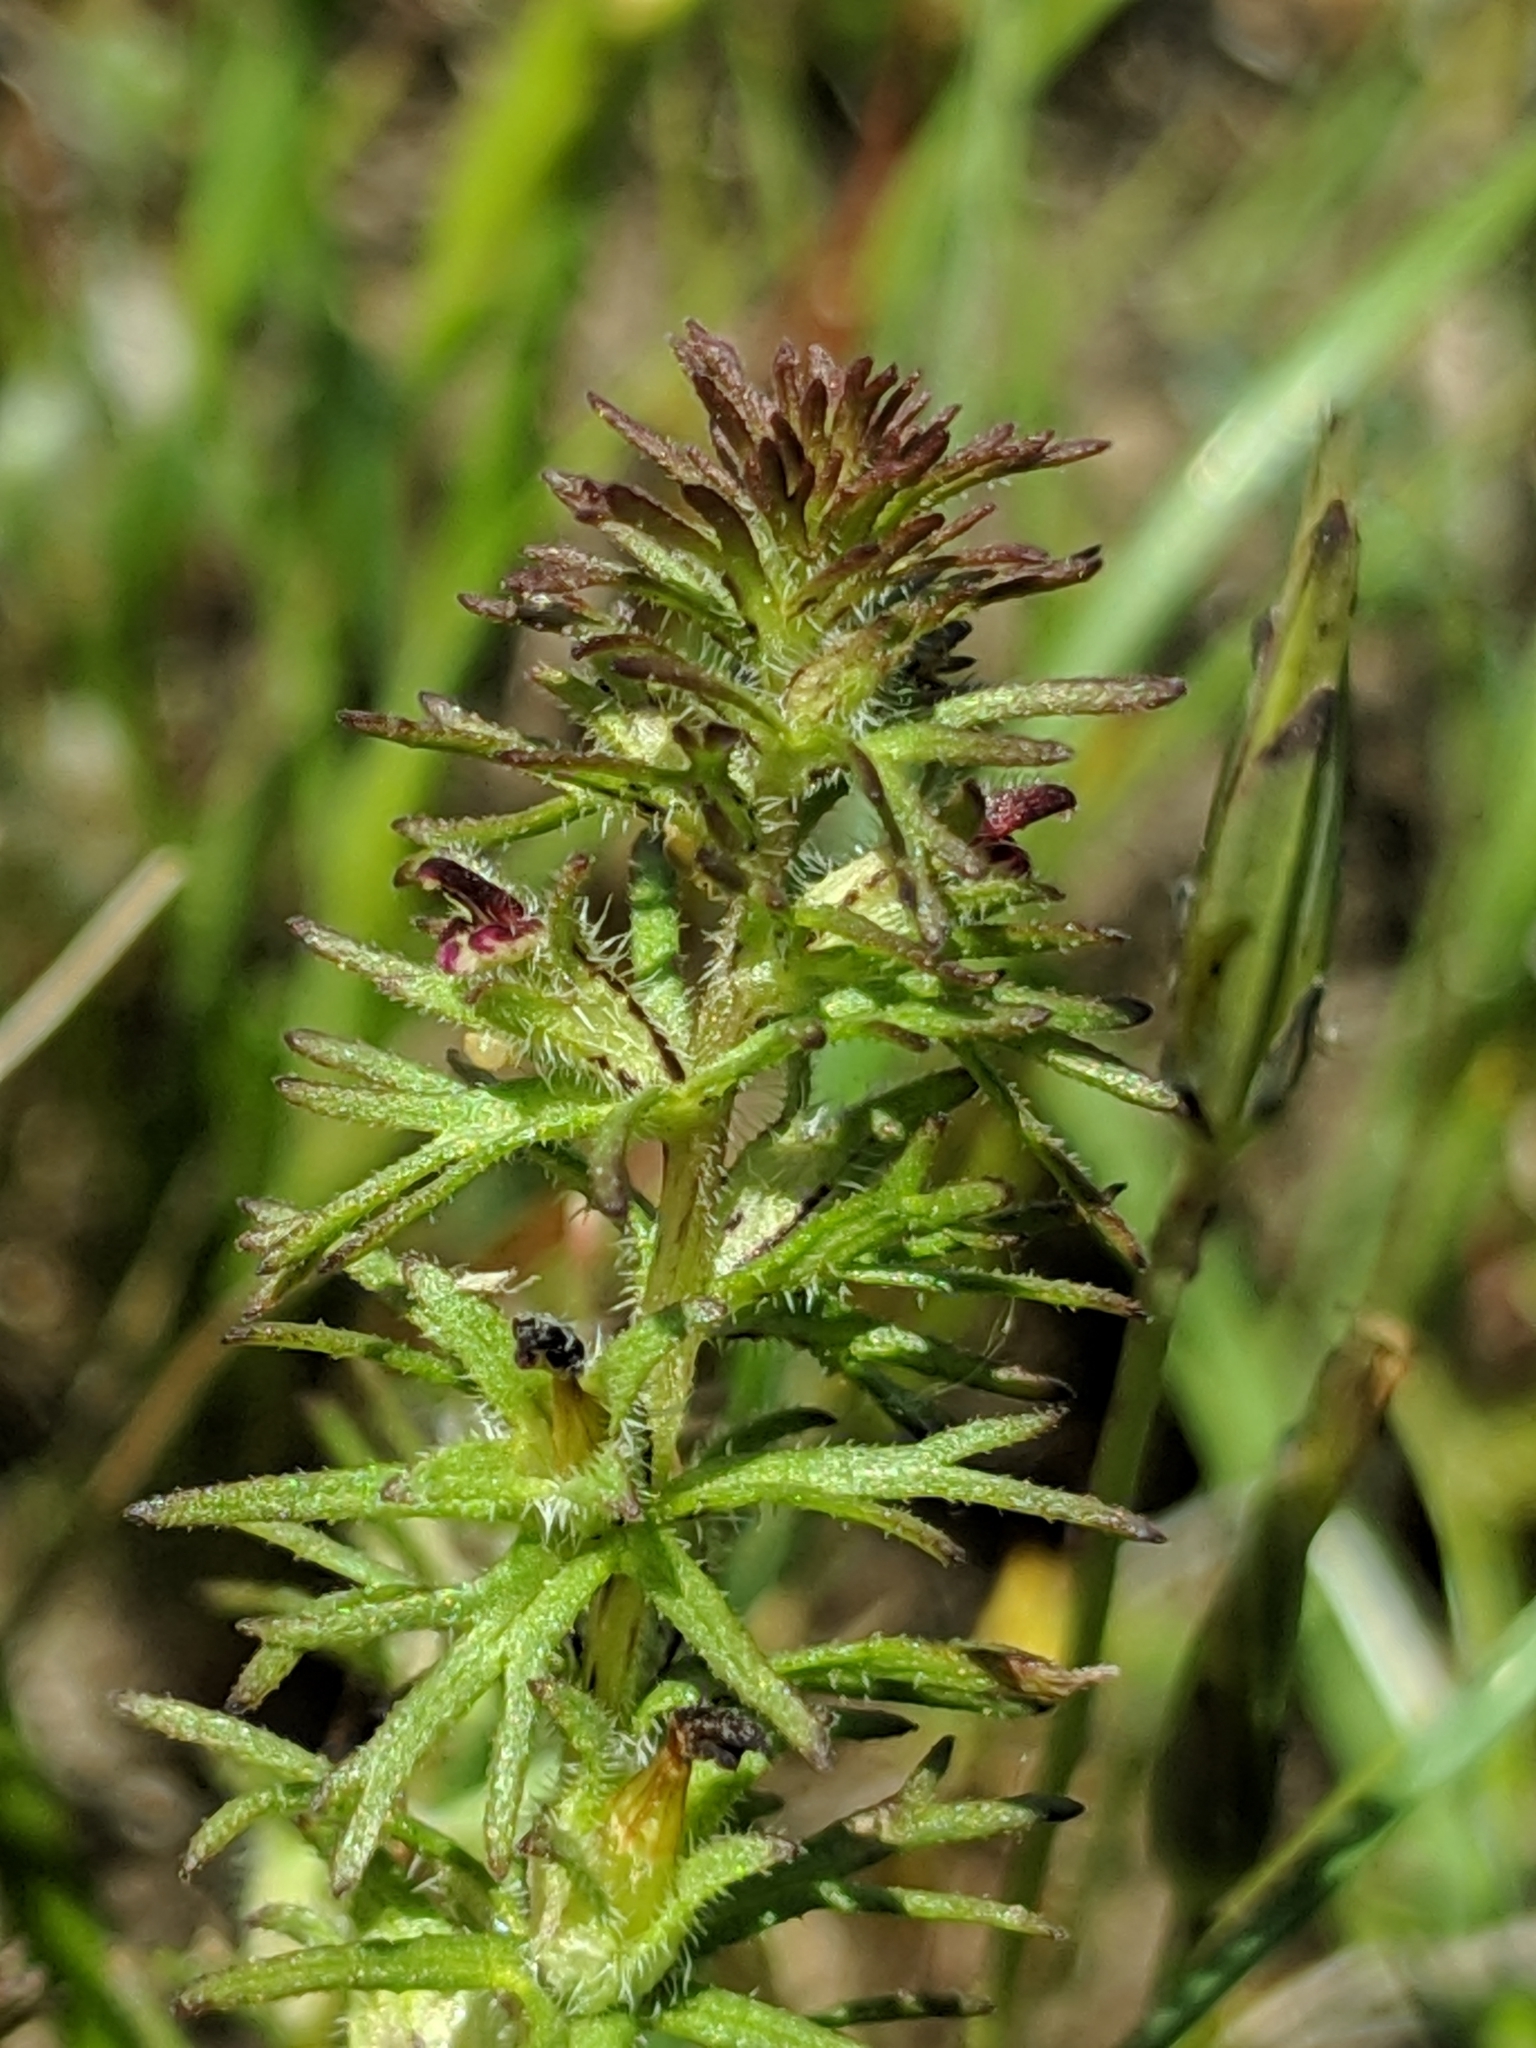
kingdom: Plantae
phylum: Tracheophyta
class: Magnoliopsida
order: Lamiales
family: Orobanchaceae
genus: Triphysaria
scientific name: Triphysaria pusilla
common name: Dwarf false owl-clover
